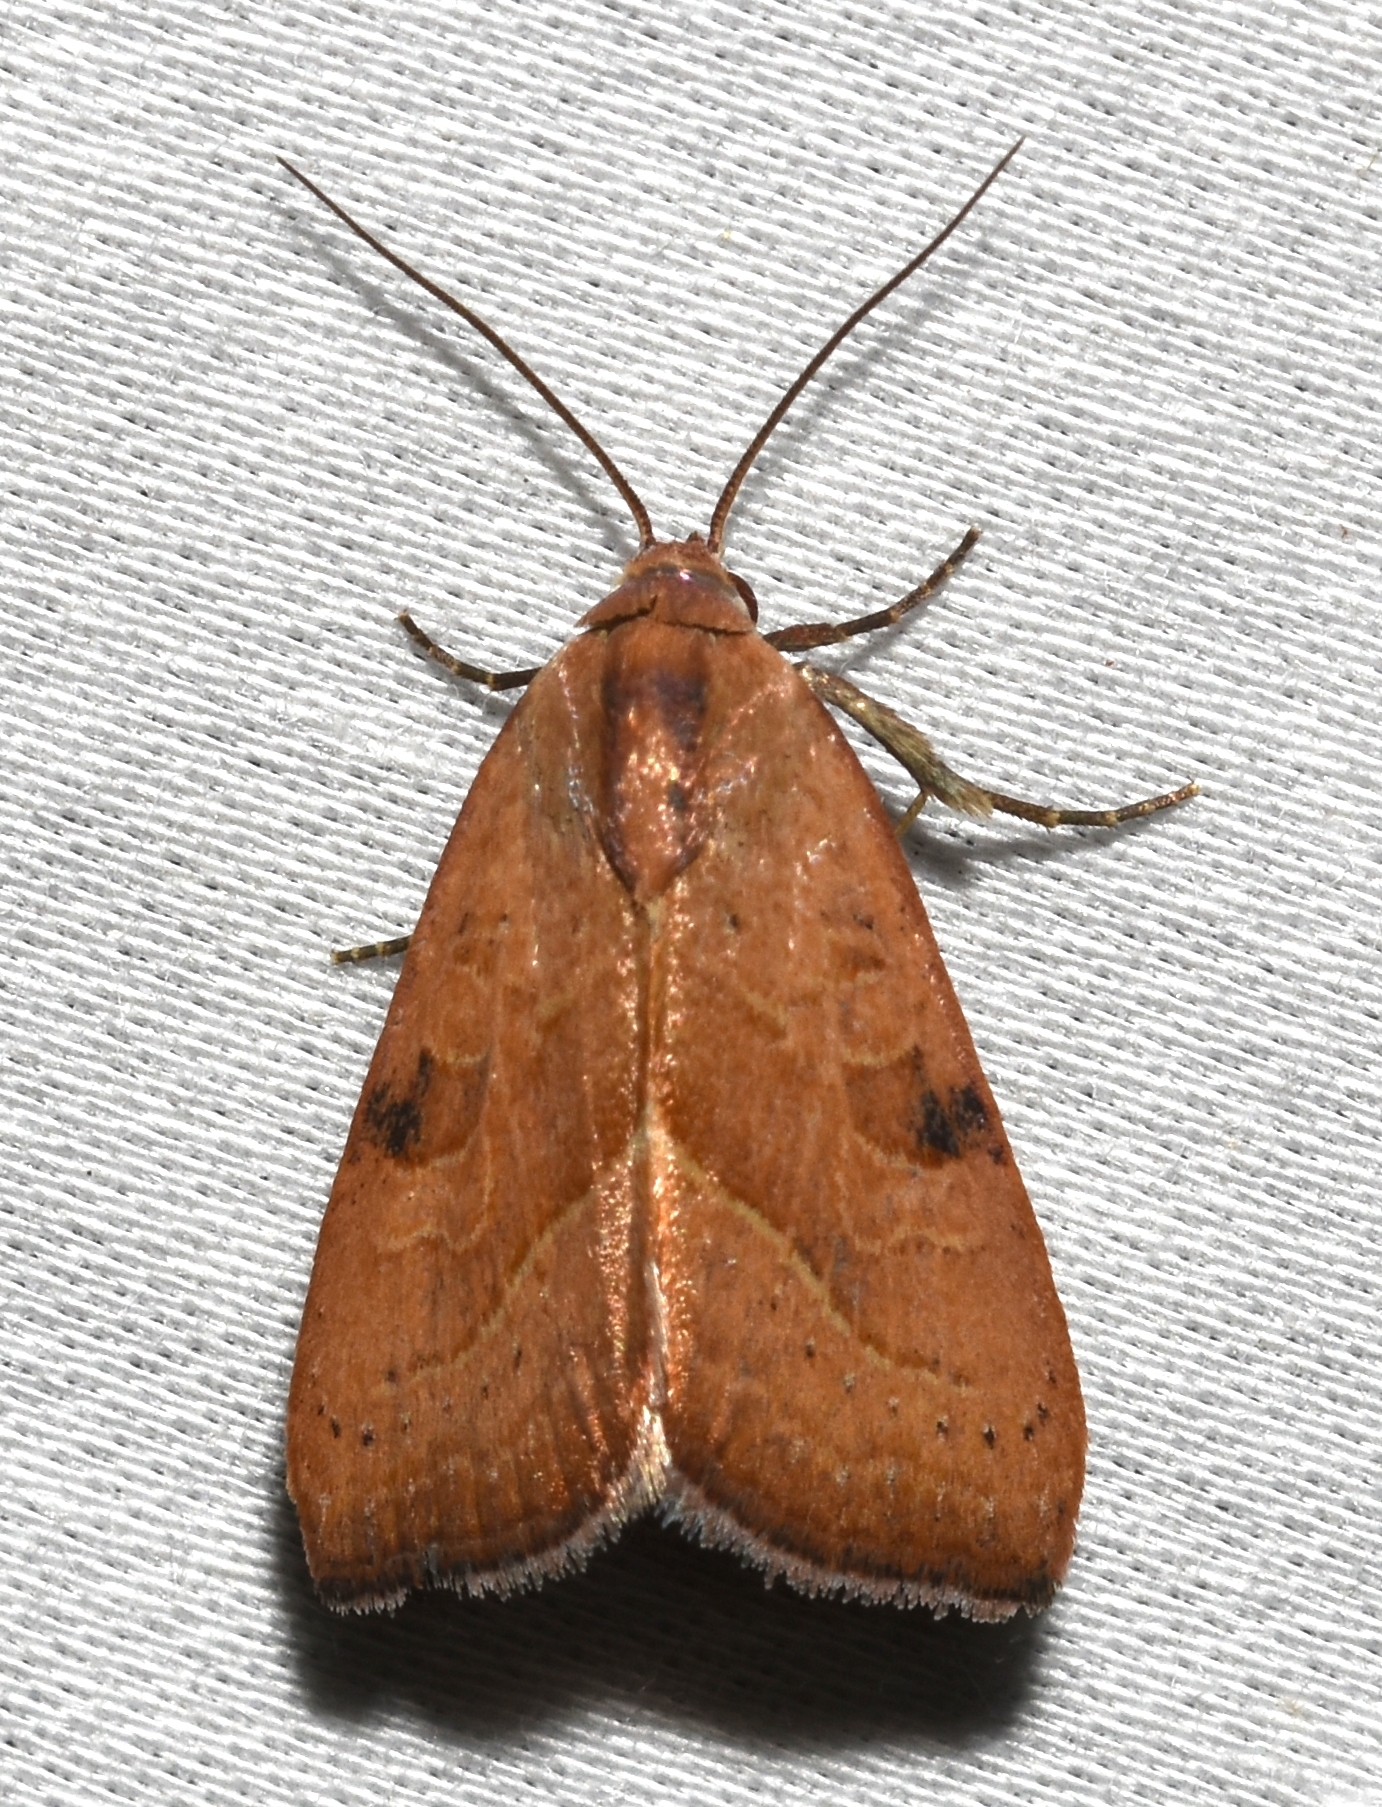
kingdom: Animalia
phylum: Arthropoda
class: Insecta
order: Lepidoptera
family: Noctuidae
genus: Galgula
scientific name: Galgula partita
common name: Wedgeling
